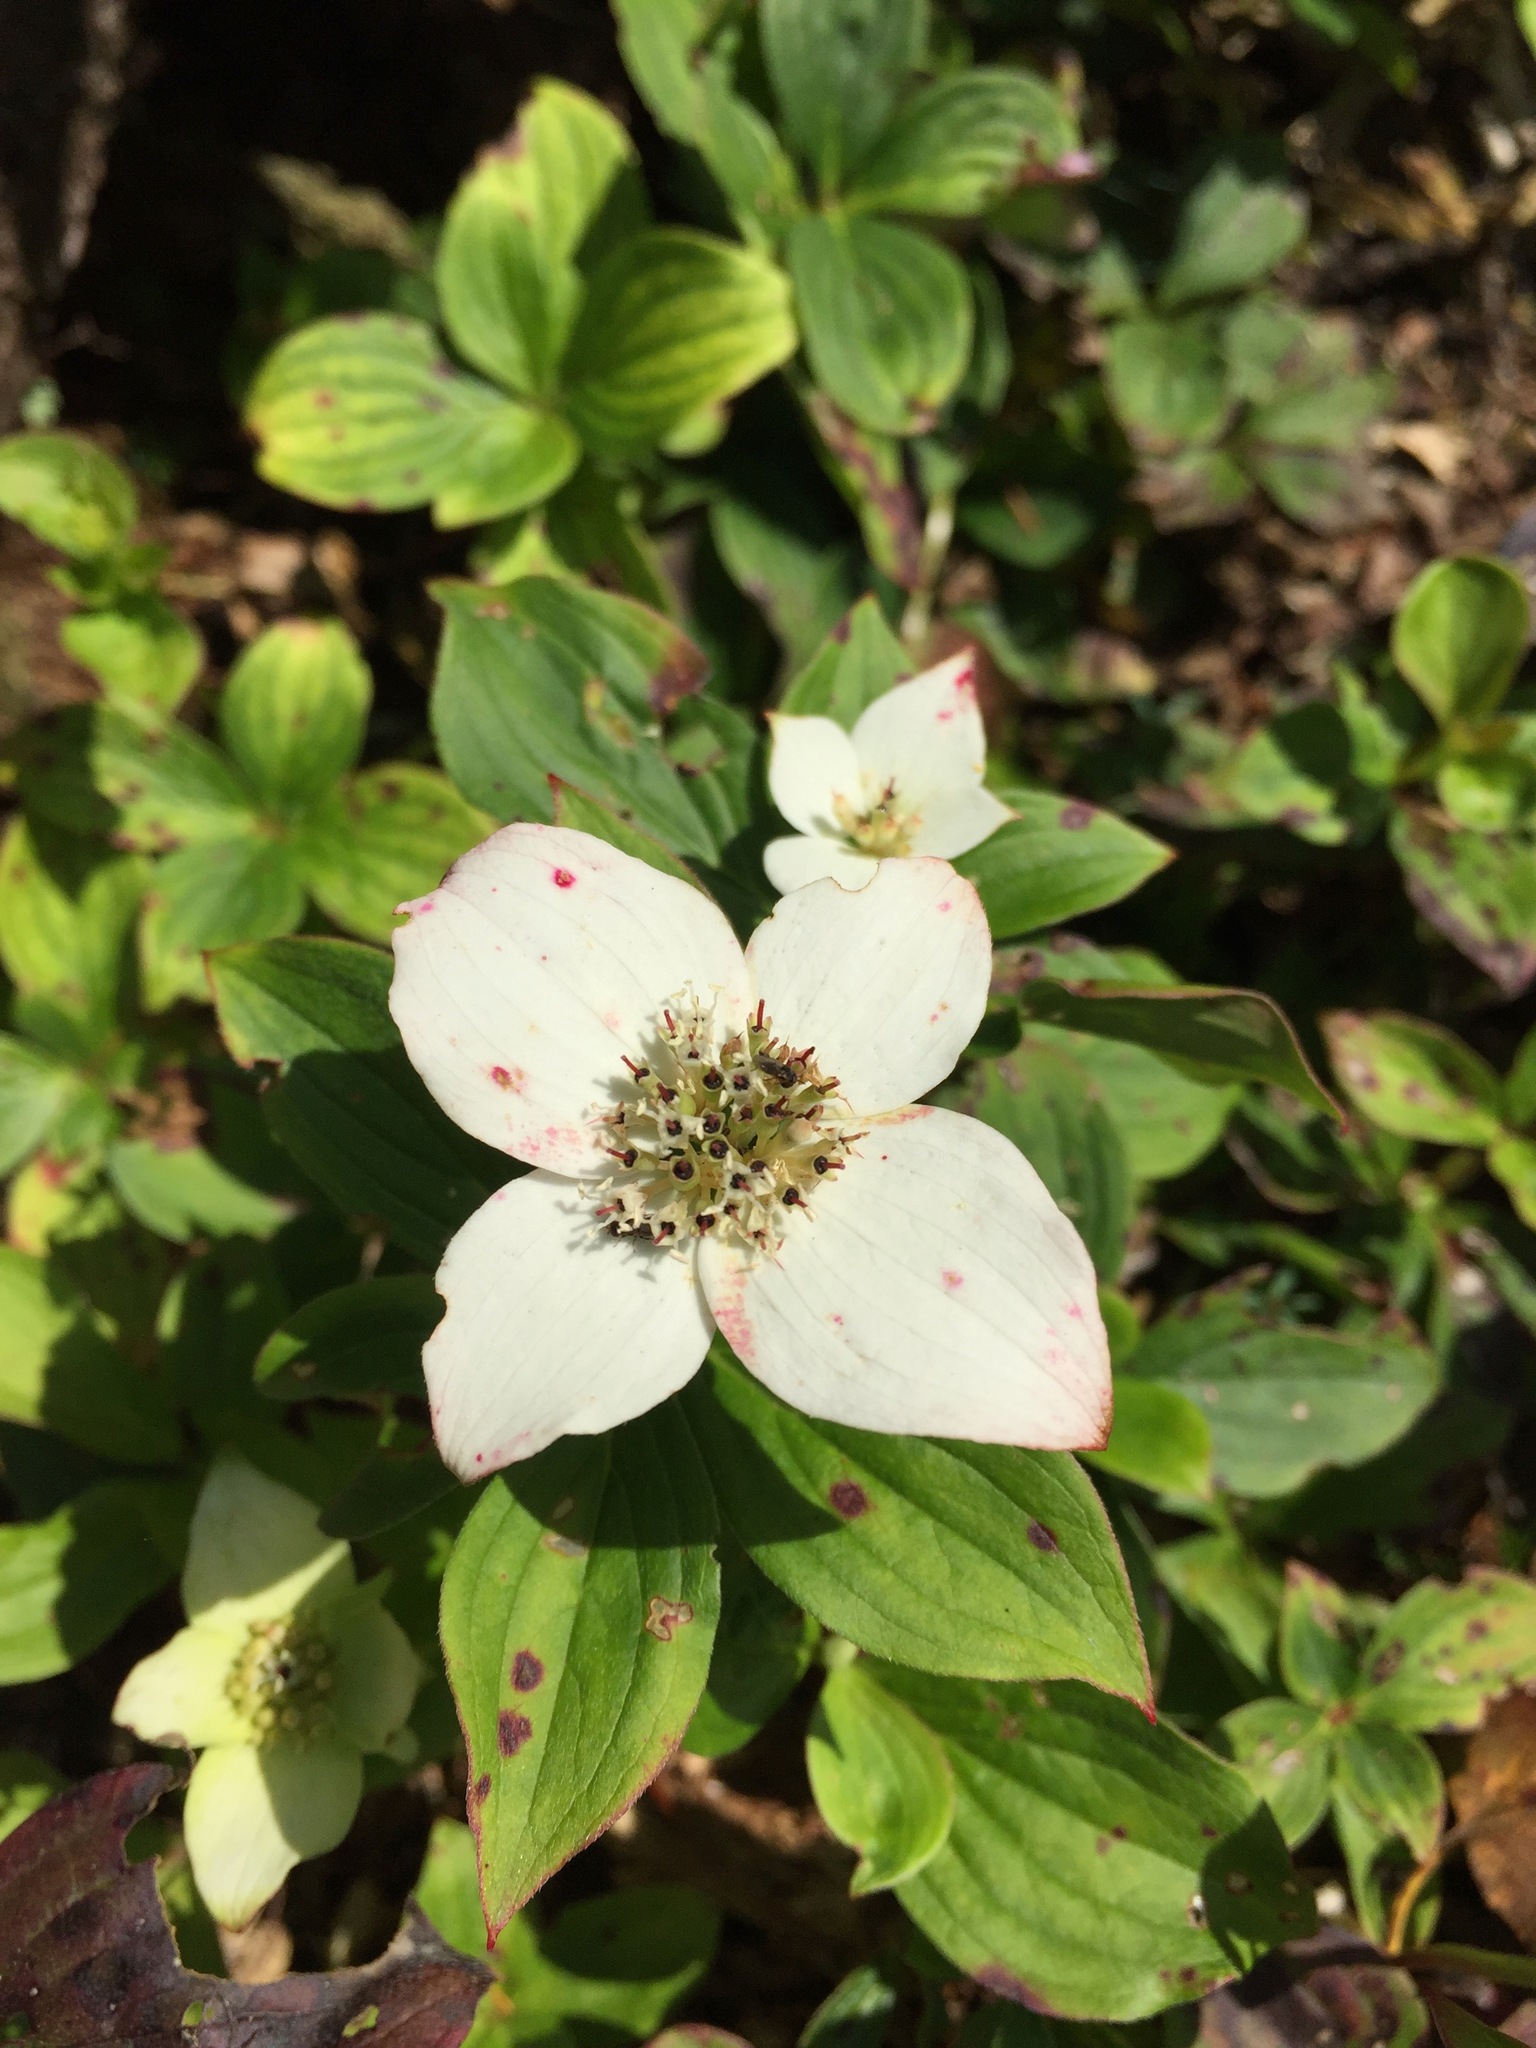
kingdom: Plantae
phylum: Tracheophyta
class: Magnoliopsida
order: Cornales
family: Cornaceae
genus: Cornus
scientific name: Cornus canadensis
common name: Creeping dogwood
